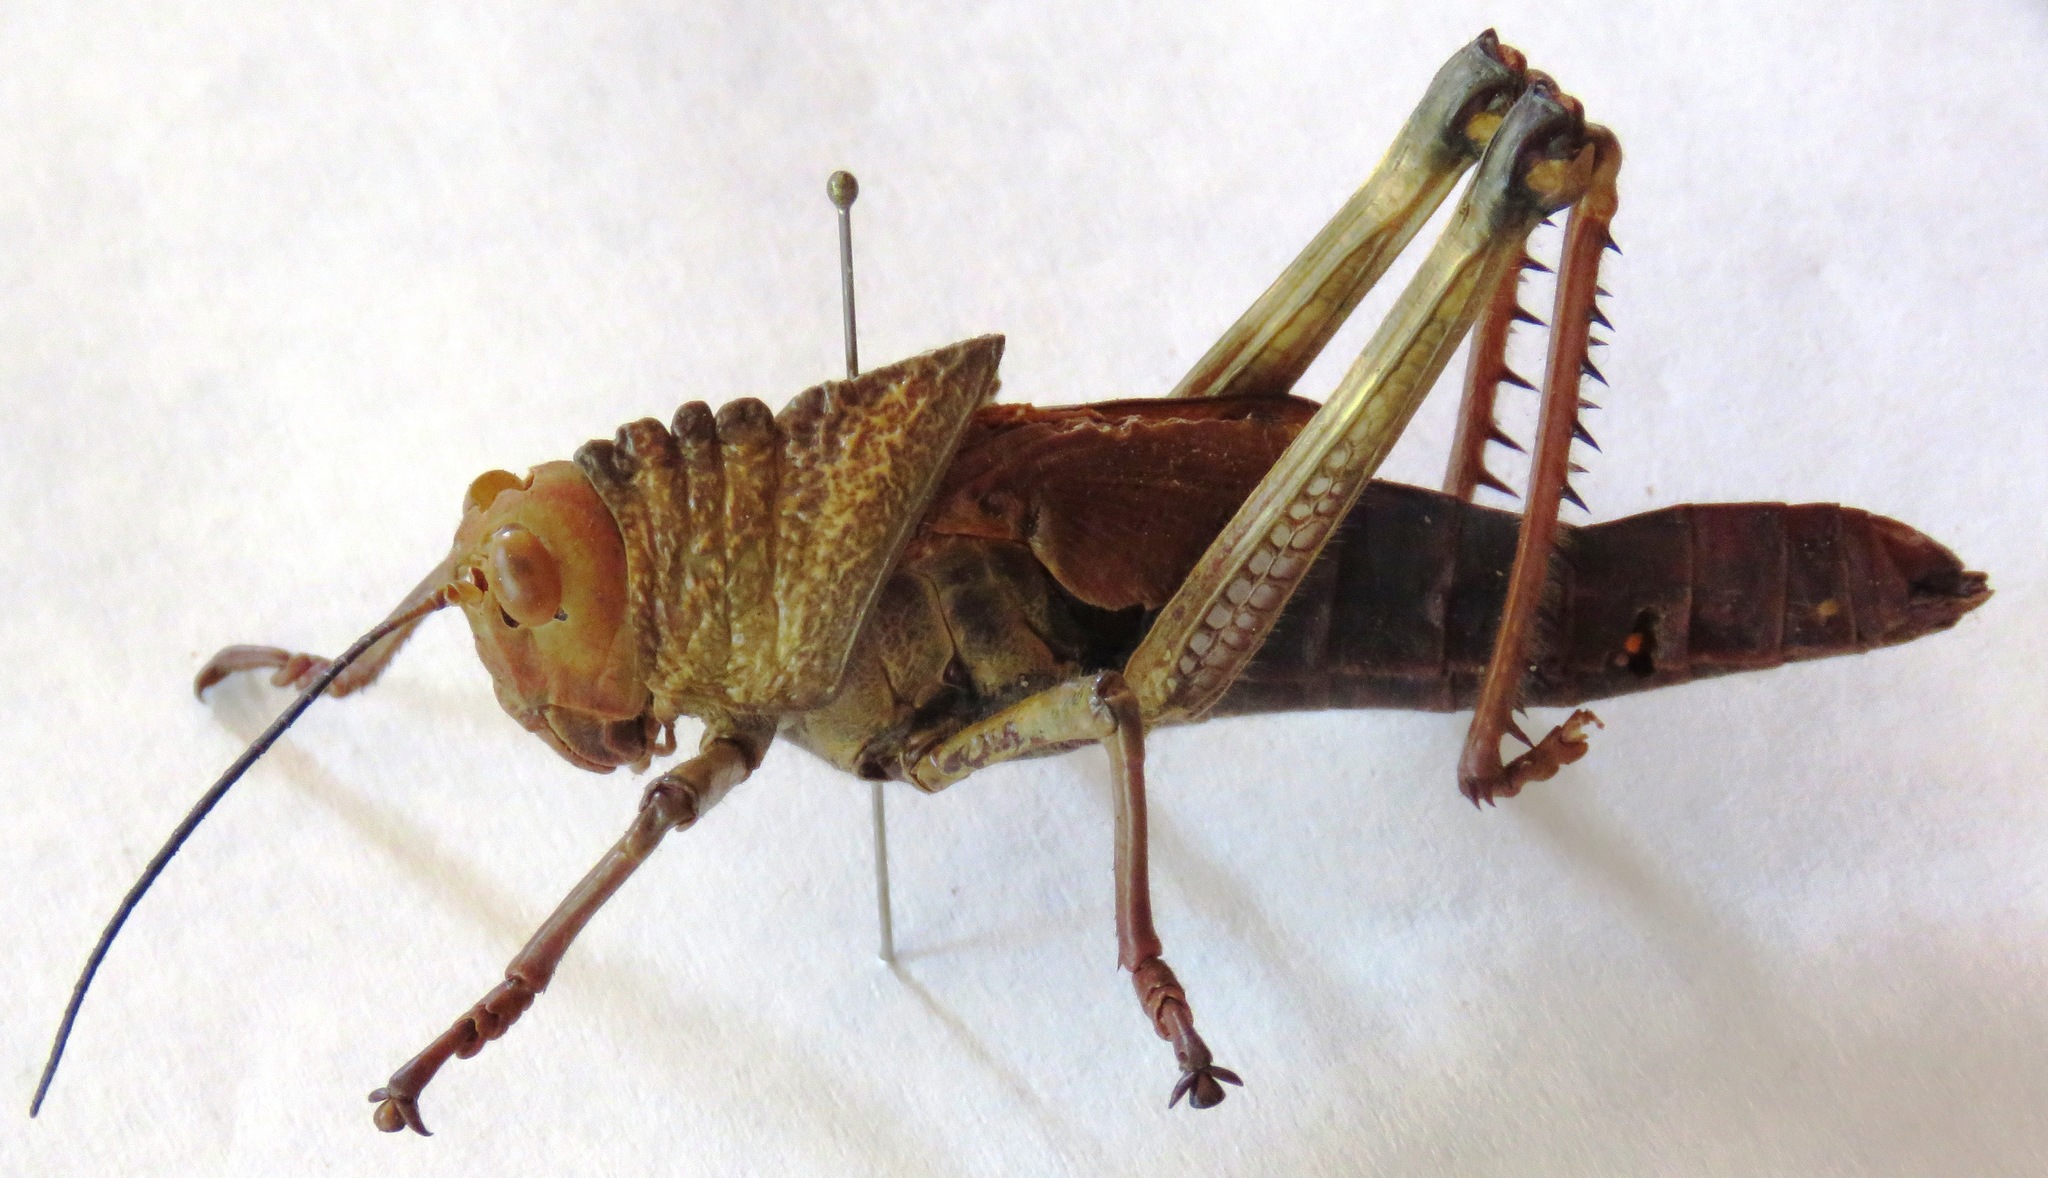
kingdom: Animalia
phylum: Arthropoda
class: Insecta
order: Orthoptera
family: Romaleidae
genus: Tropidacris
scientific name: Tropidacris cristata
